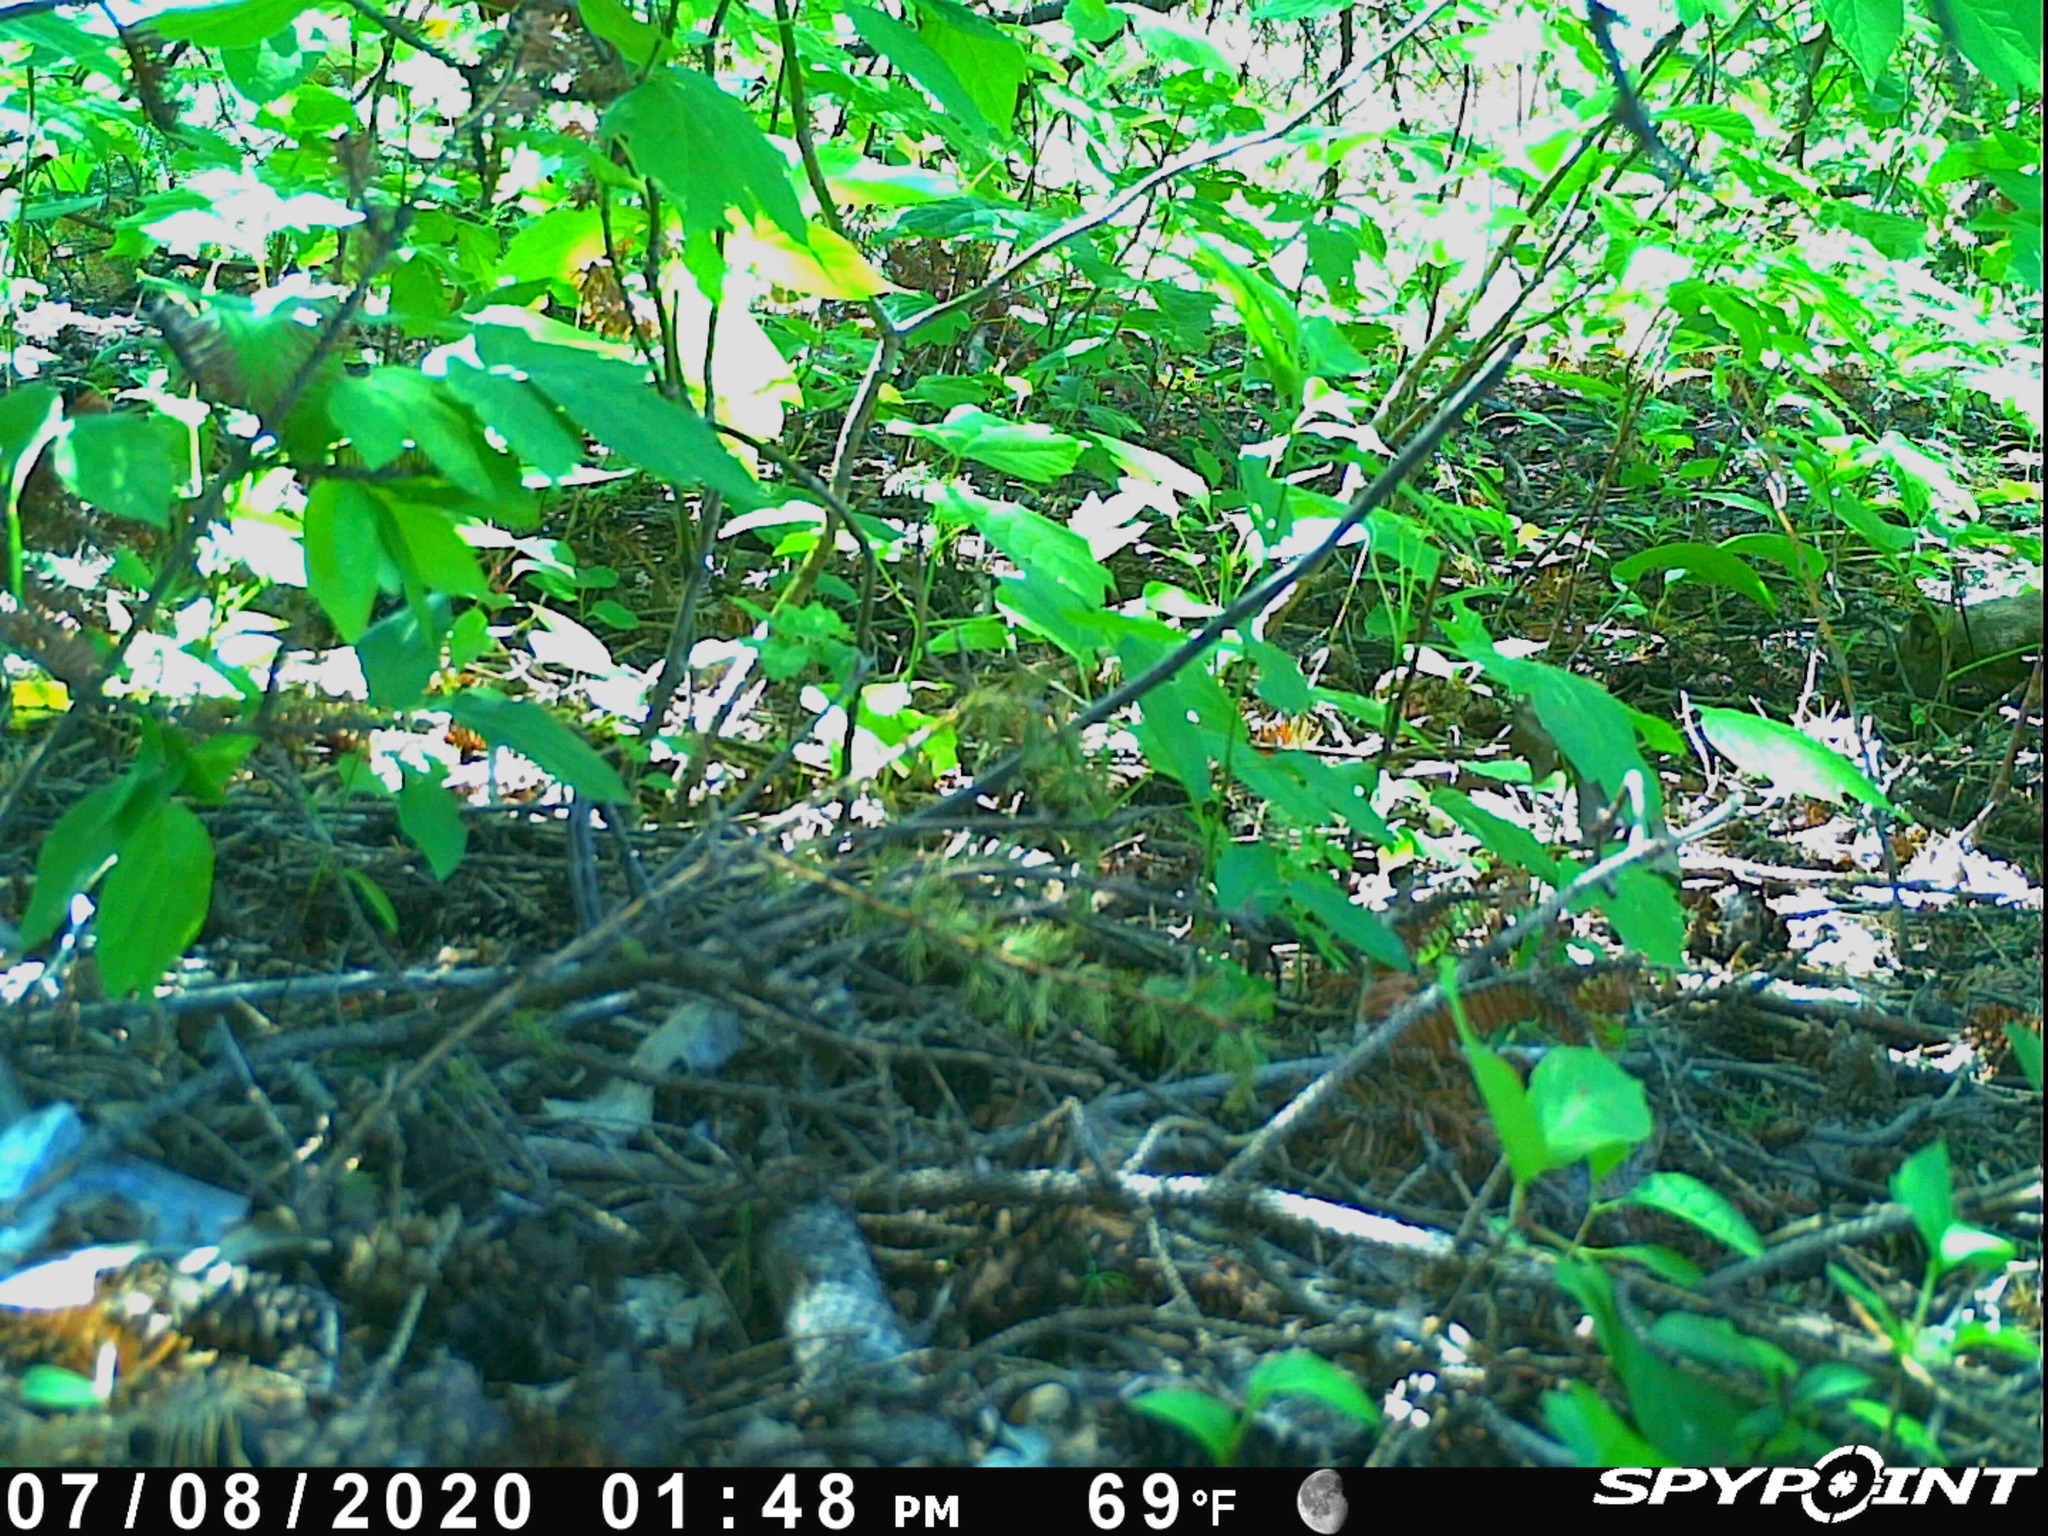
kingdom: Animalia
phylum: Chordata
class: Mammalia
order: Rodentia
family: Sciuridae
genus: Tamiasciurus
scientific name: Tamiasciurus hudsonicus
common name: Red squirrel
